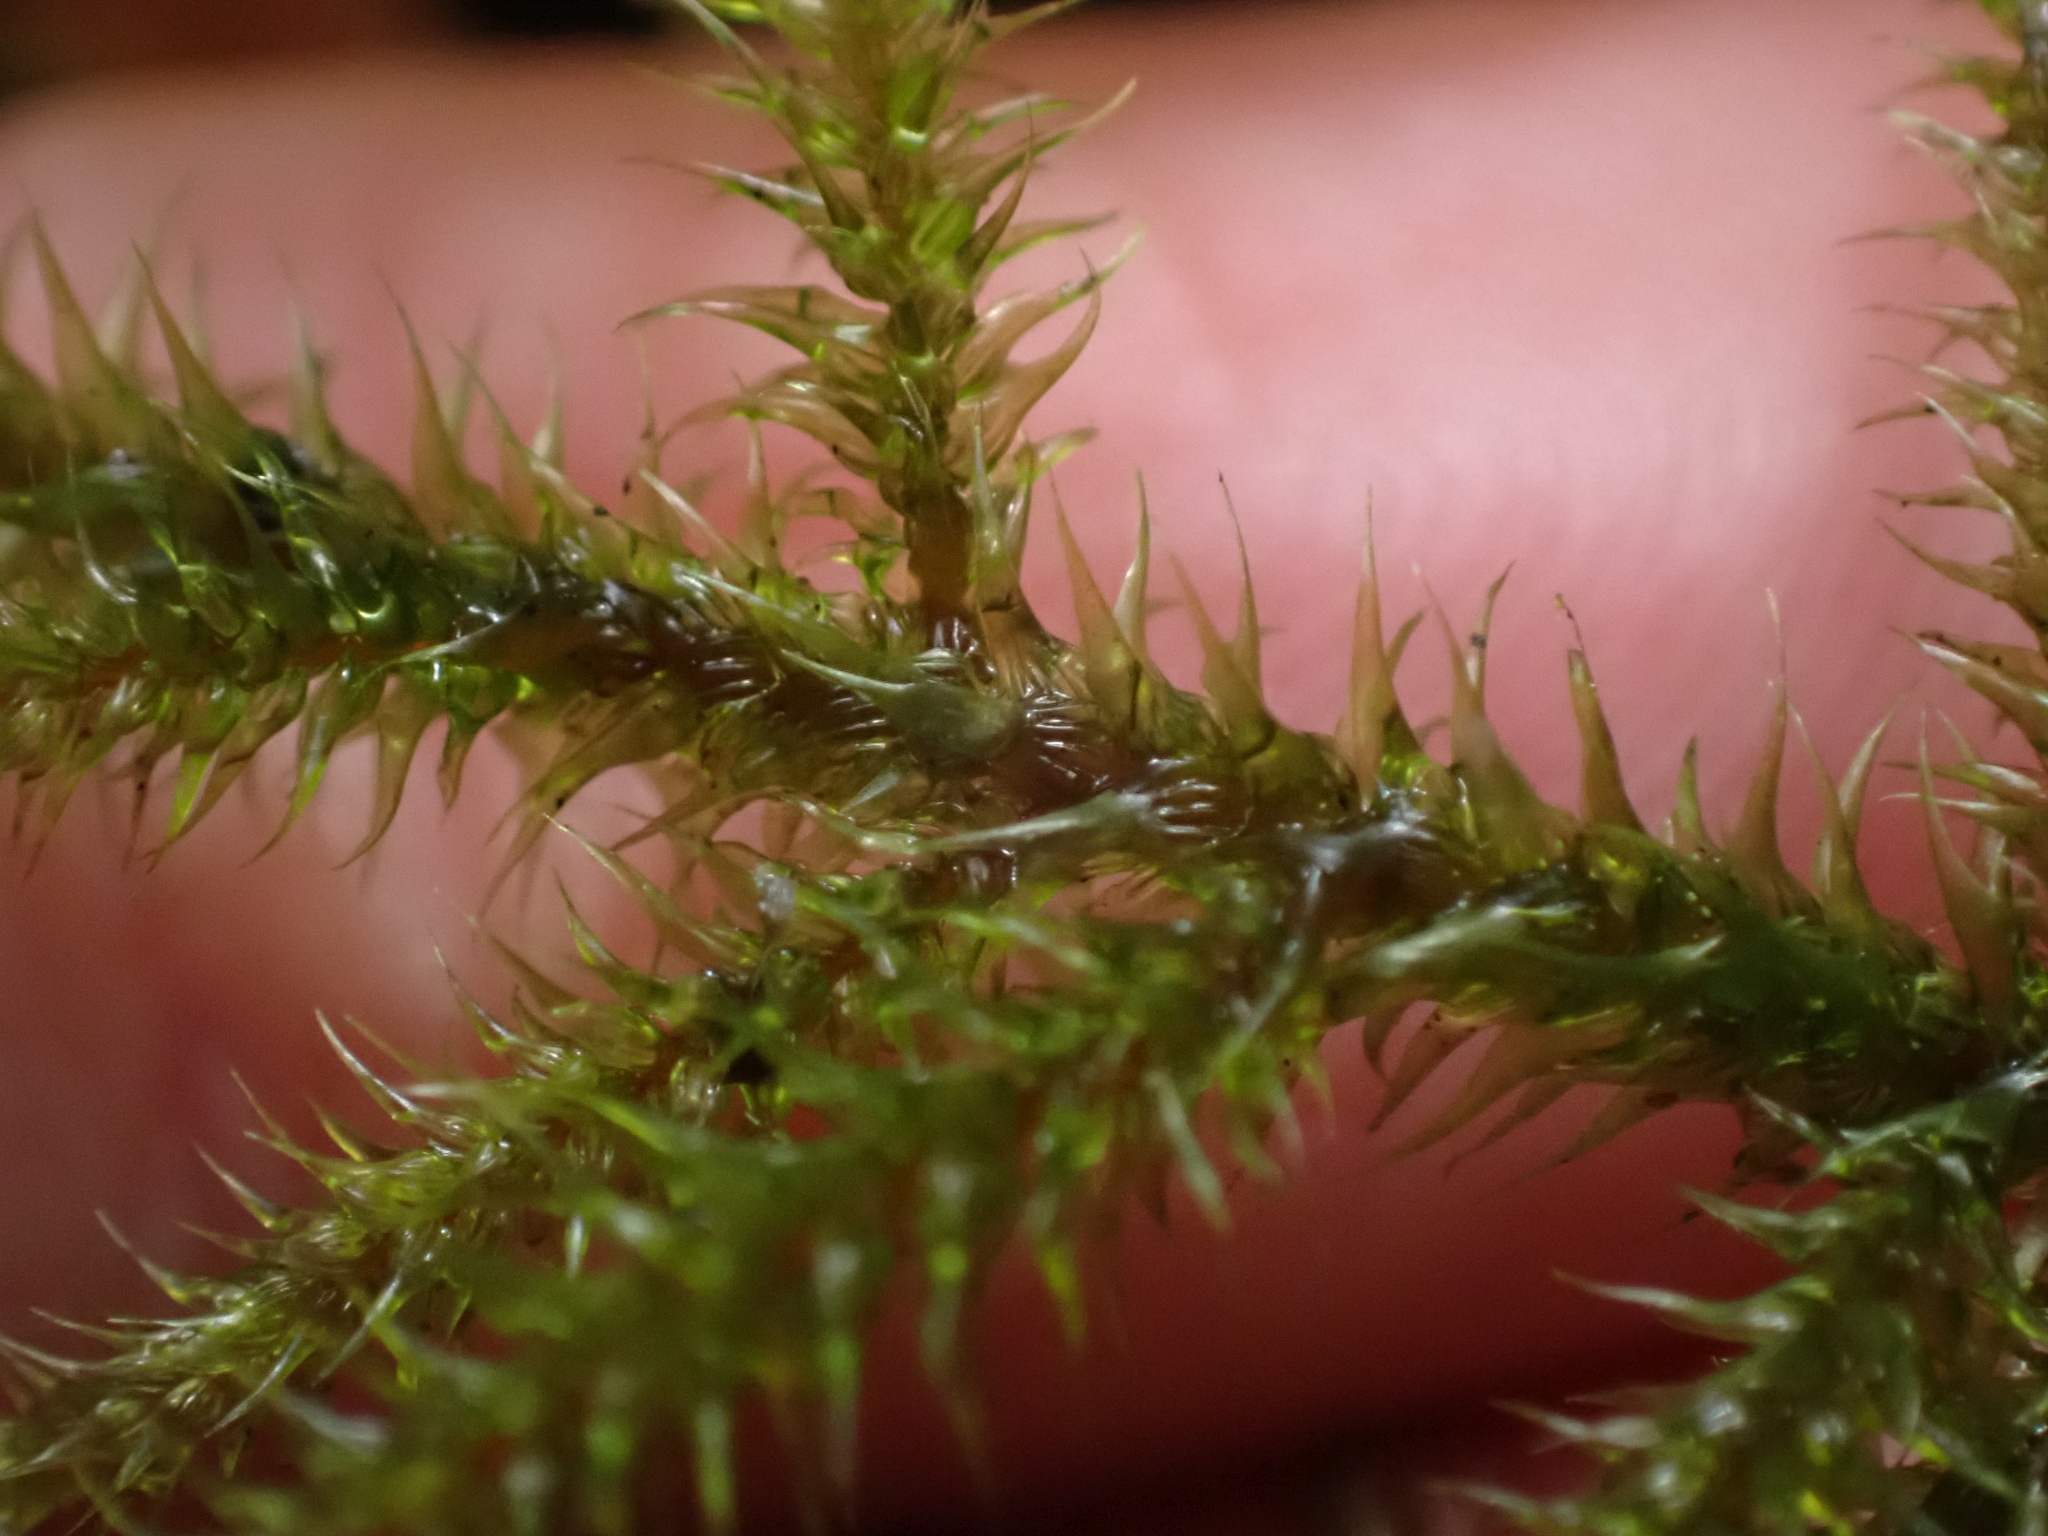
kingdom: Plantae
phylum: Bryophyta
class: Bryopsida
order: Hypnales
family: Hylocomiaceae
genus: Rhytidiadelphus
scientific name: Rhytidiadelphus loreus
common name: Lanky moss
